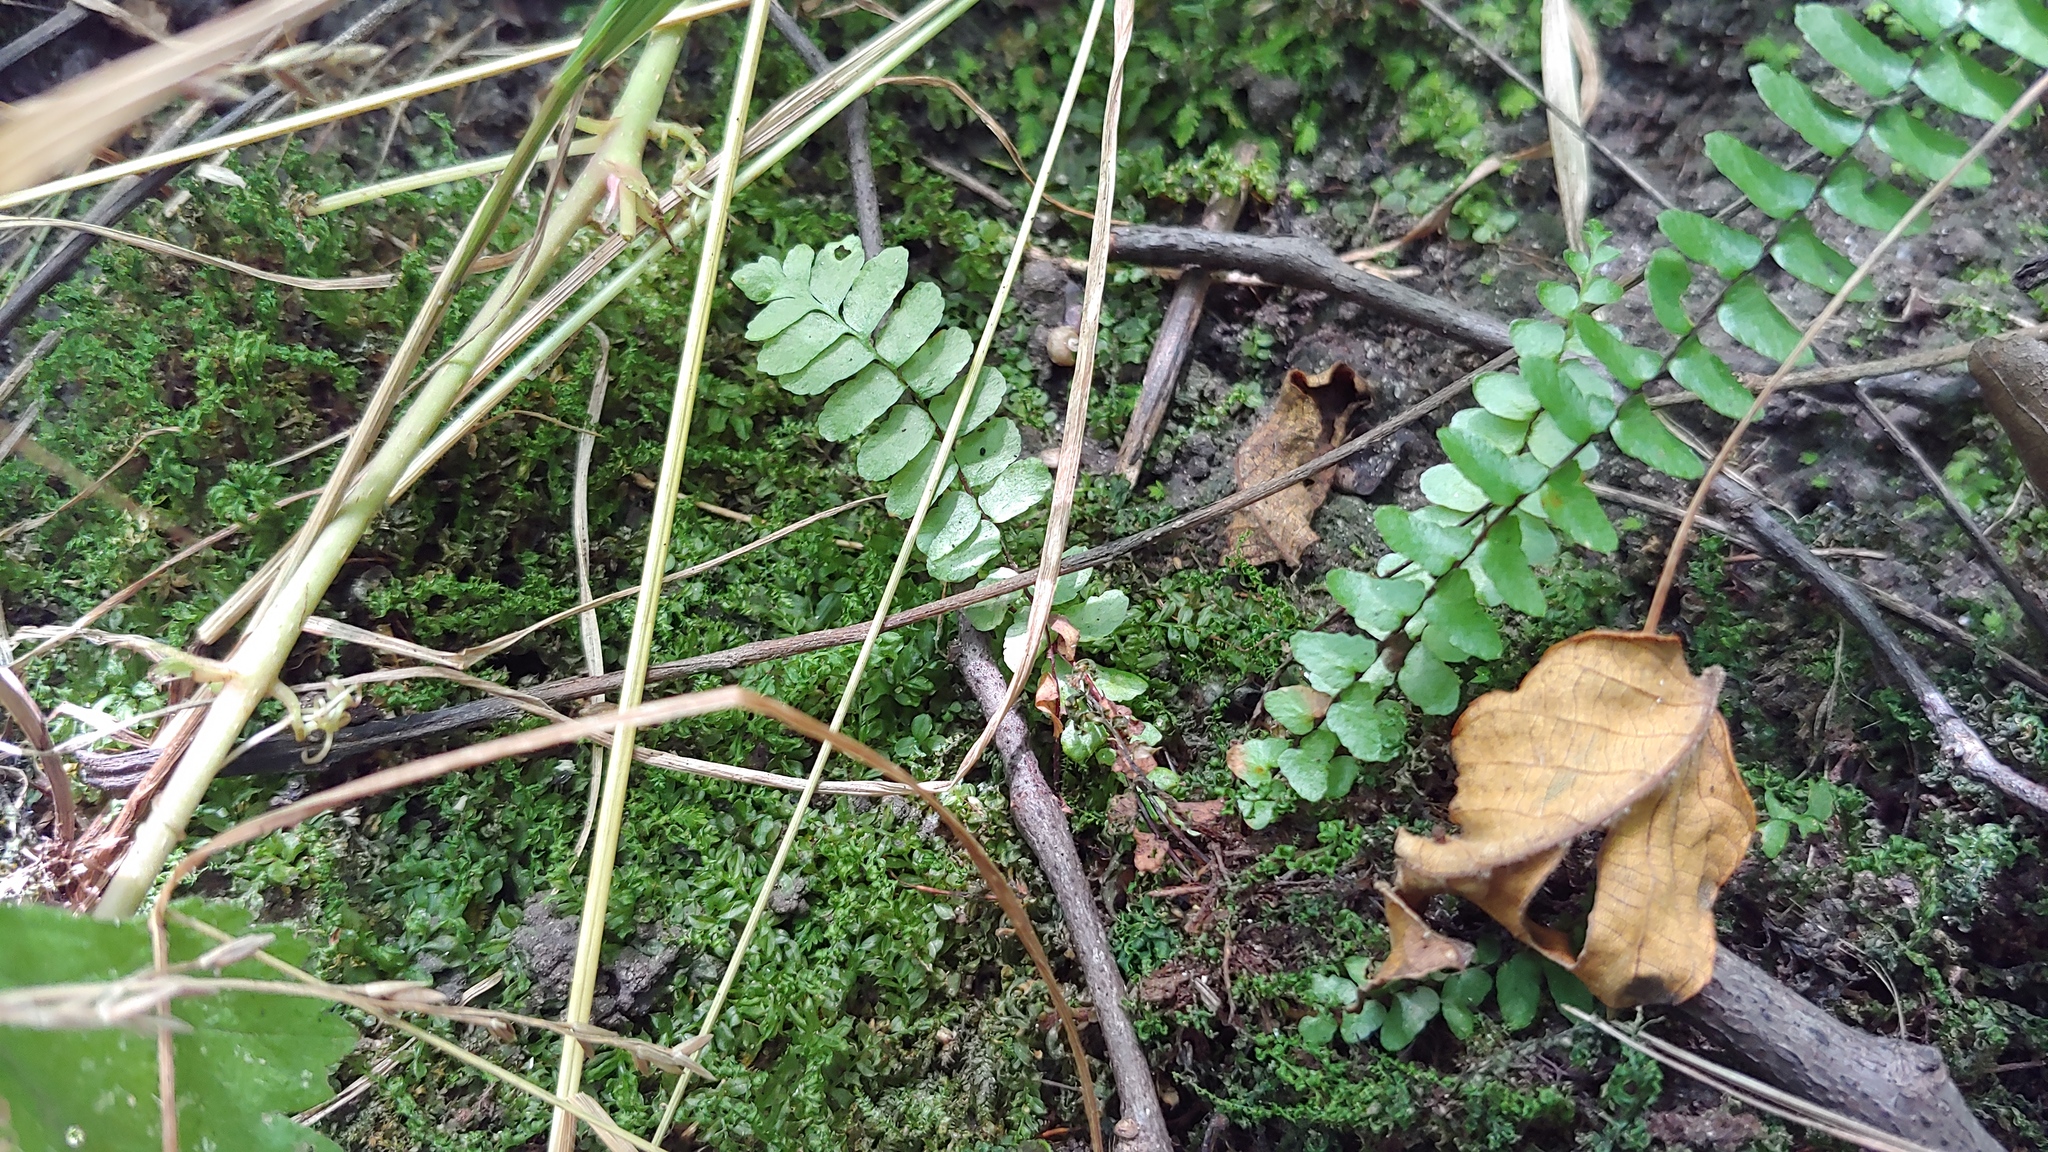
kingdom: Plantae
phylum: Tracheophyta
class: Polypodiopsida
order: Polypodiales
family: Aspleniaceae
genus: Asplenium
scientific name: Asplenium platyneuron
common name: Ebony spleenwort
